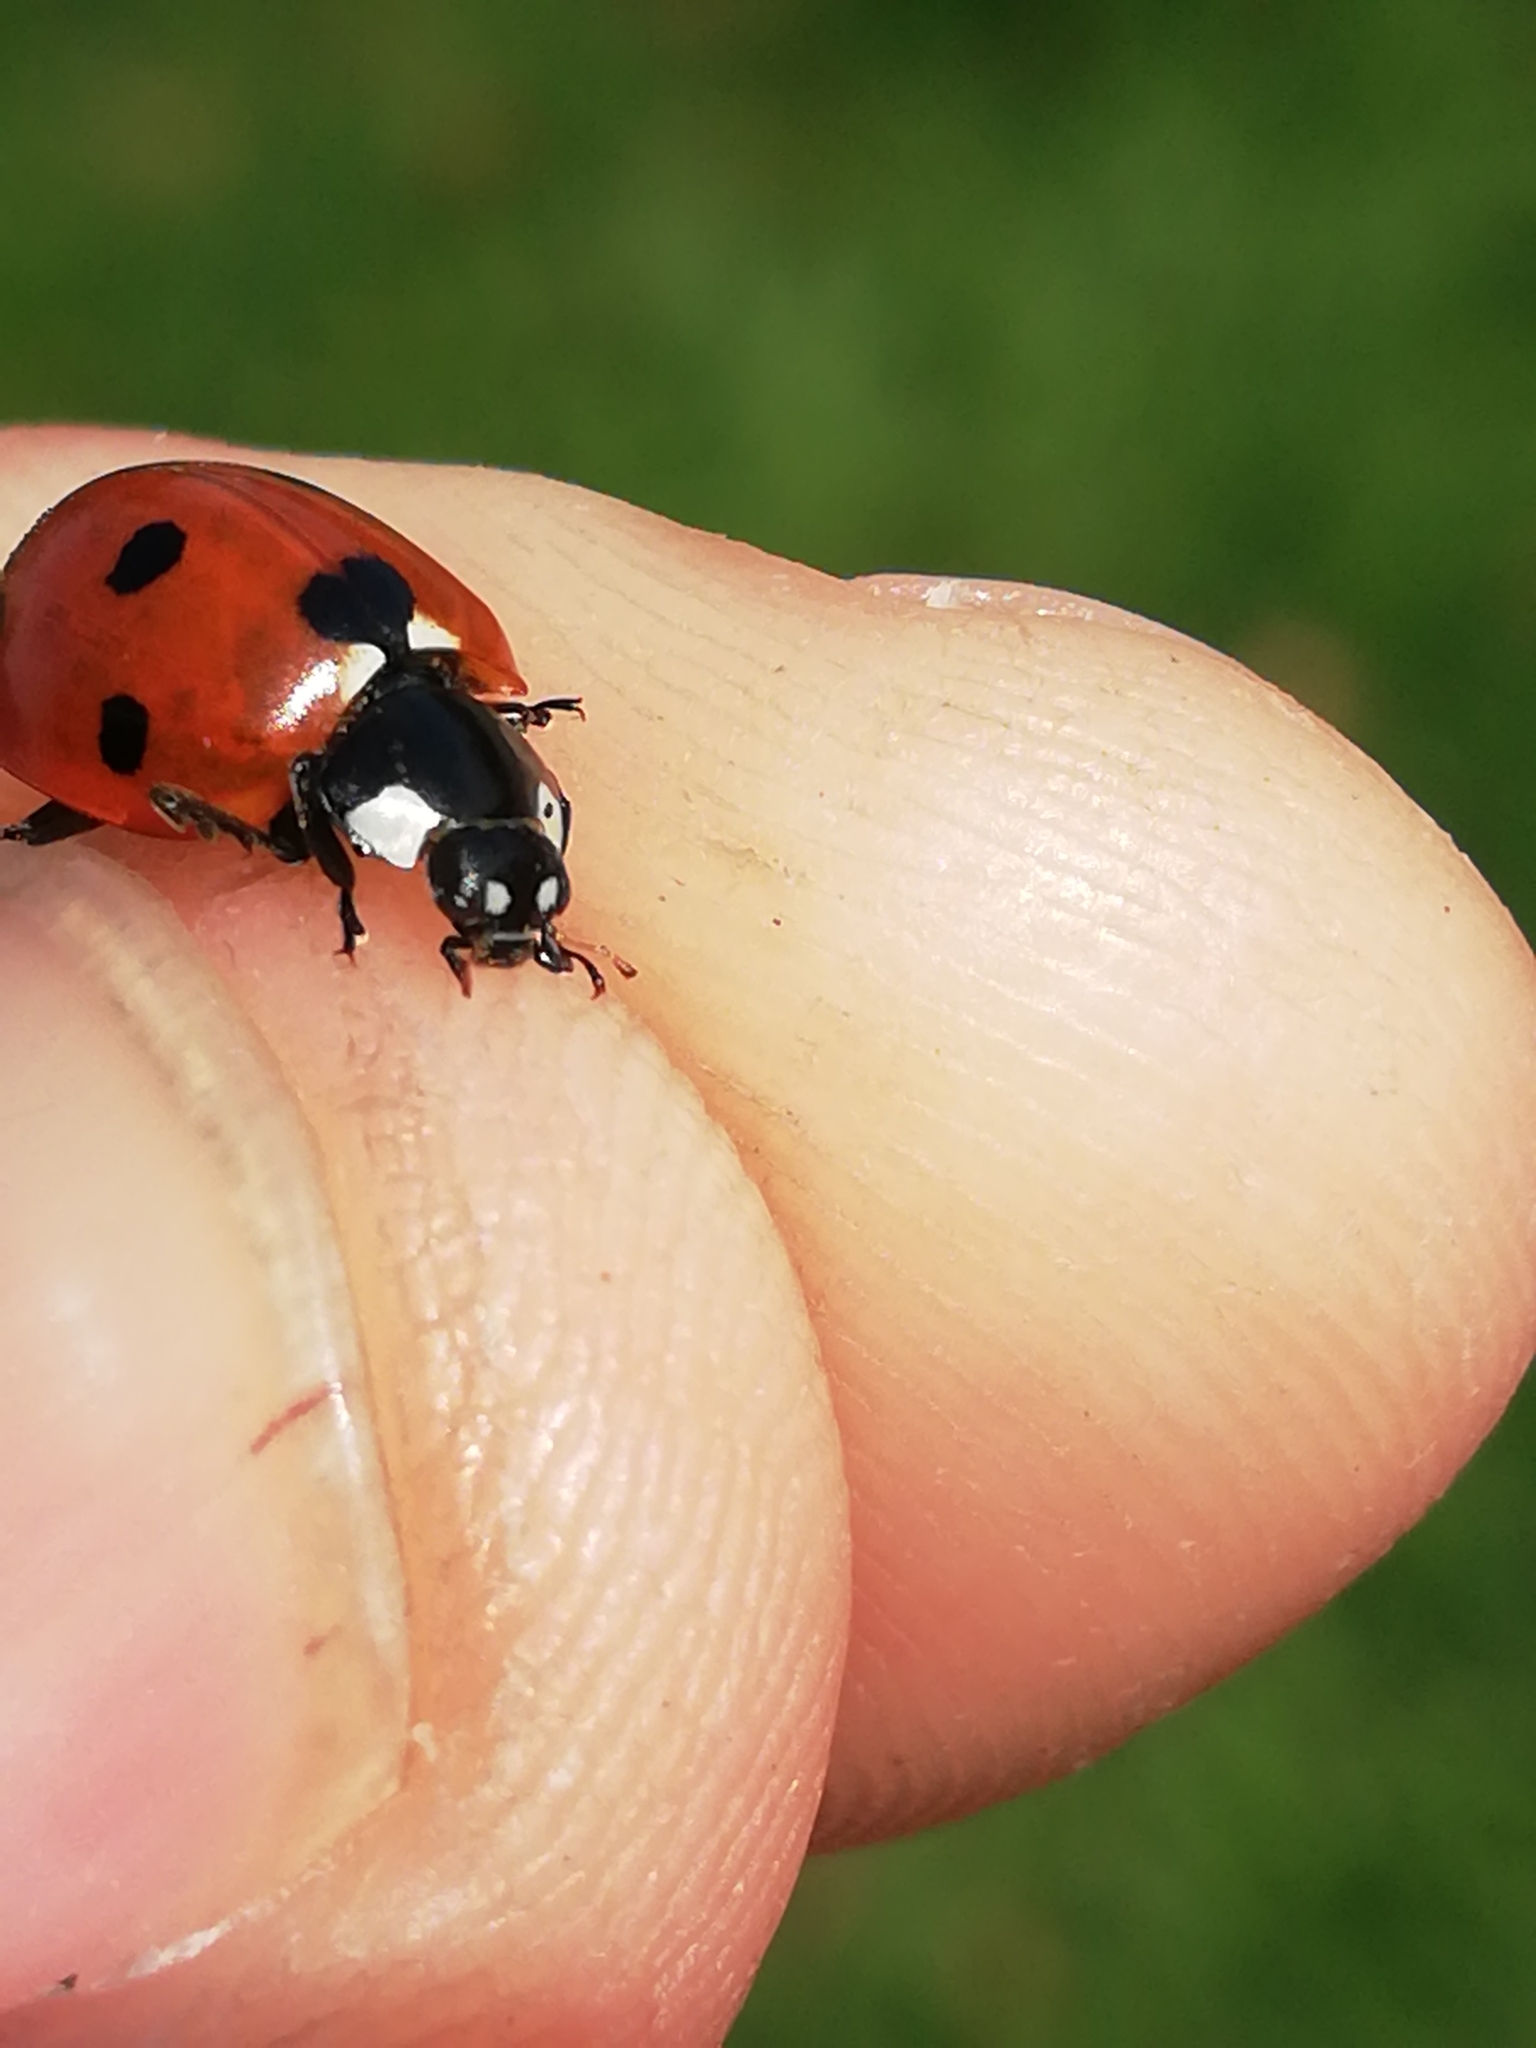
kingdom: Animalia
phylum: Arthropoda
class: Insecta
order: Coleoptera
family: Coccinellidae
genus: Coccinella
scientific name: Coccinella septempunctata
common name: Sevenspotted lady beetle
